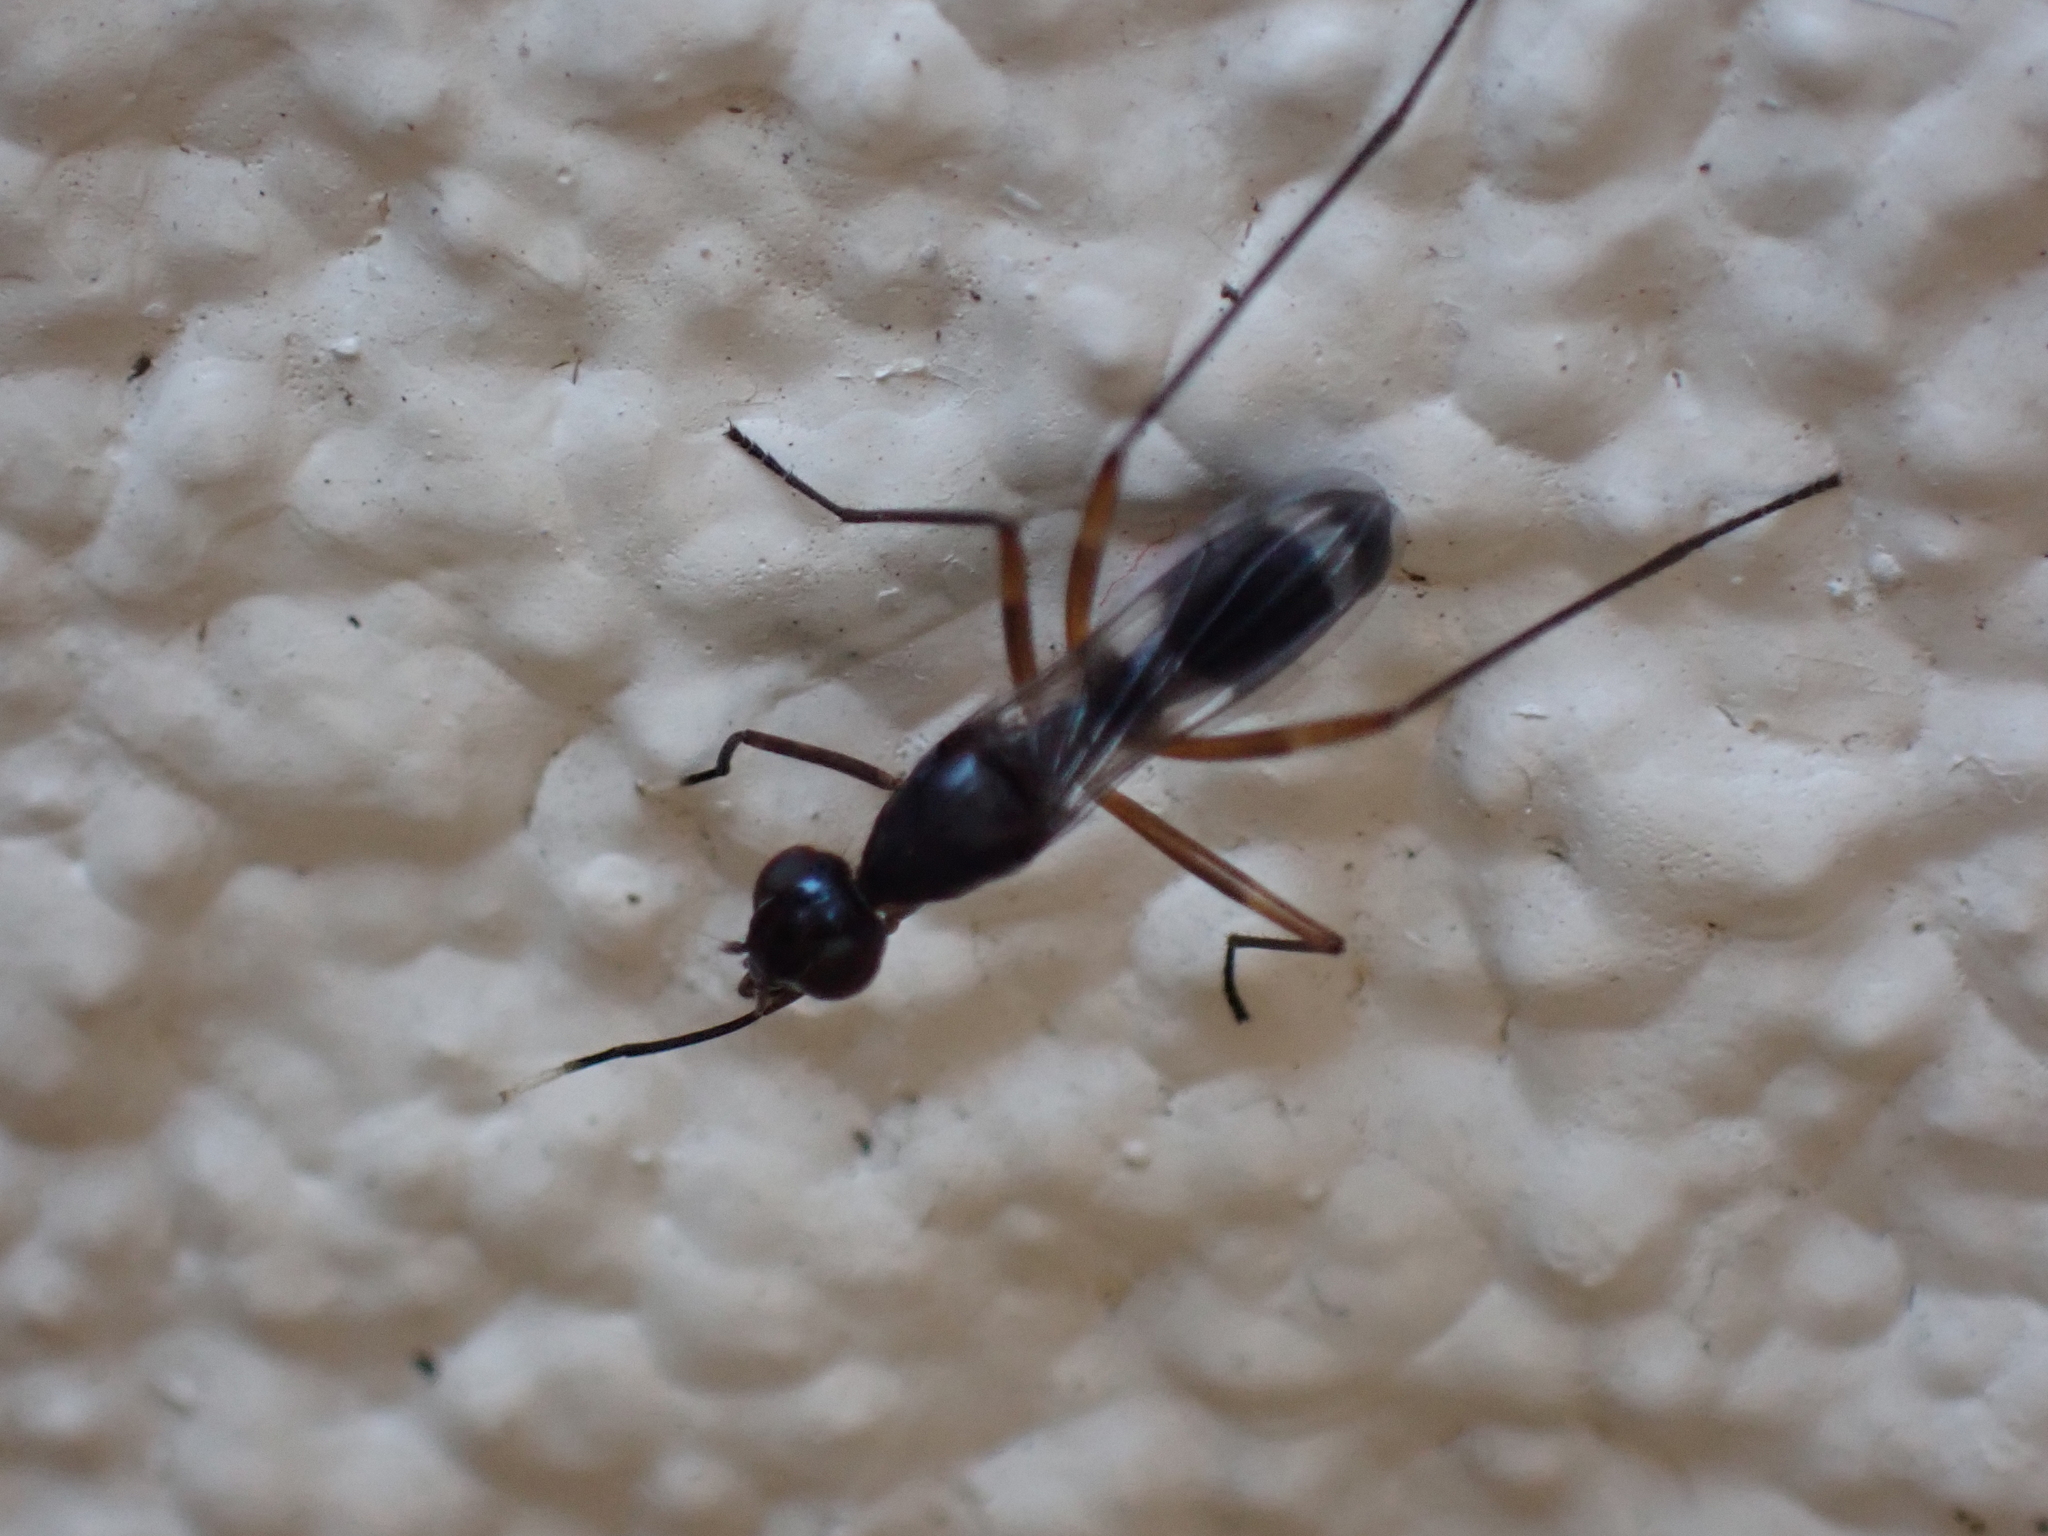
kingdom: Animalia
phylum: Arthropoda
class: Insecta
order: Diptera
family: Micropezidae
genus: Taeniaptera
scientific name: Taeniaptera trivittata
